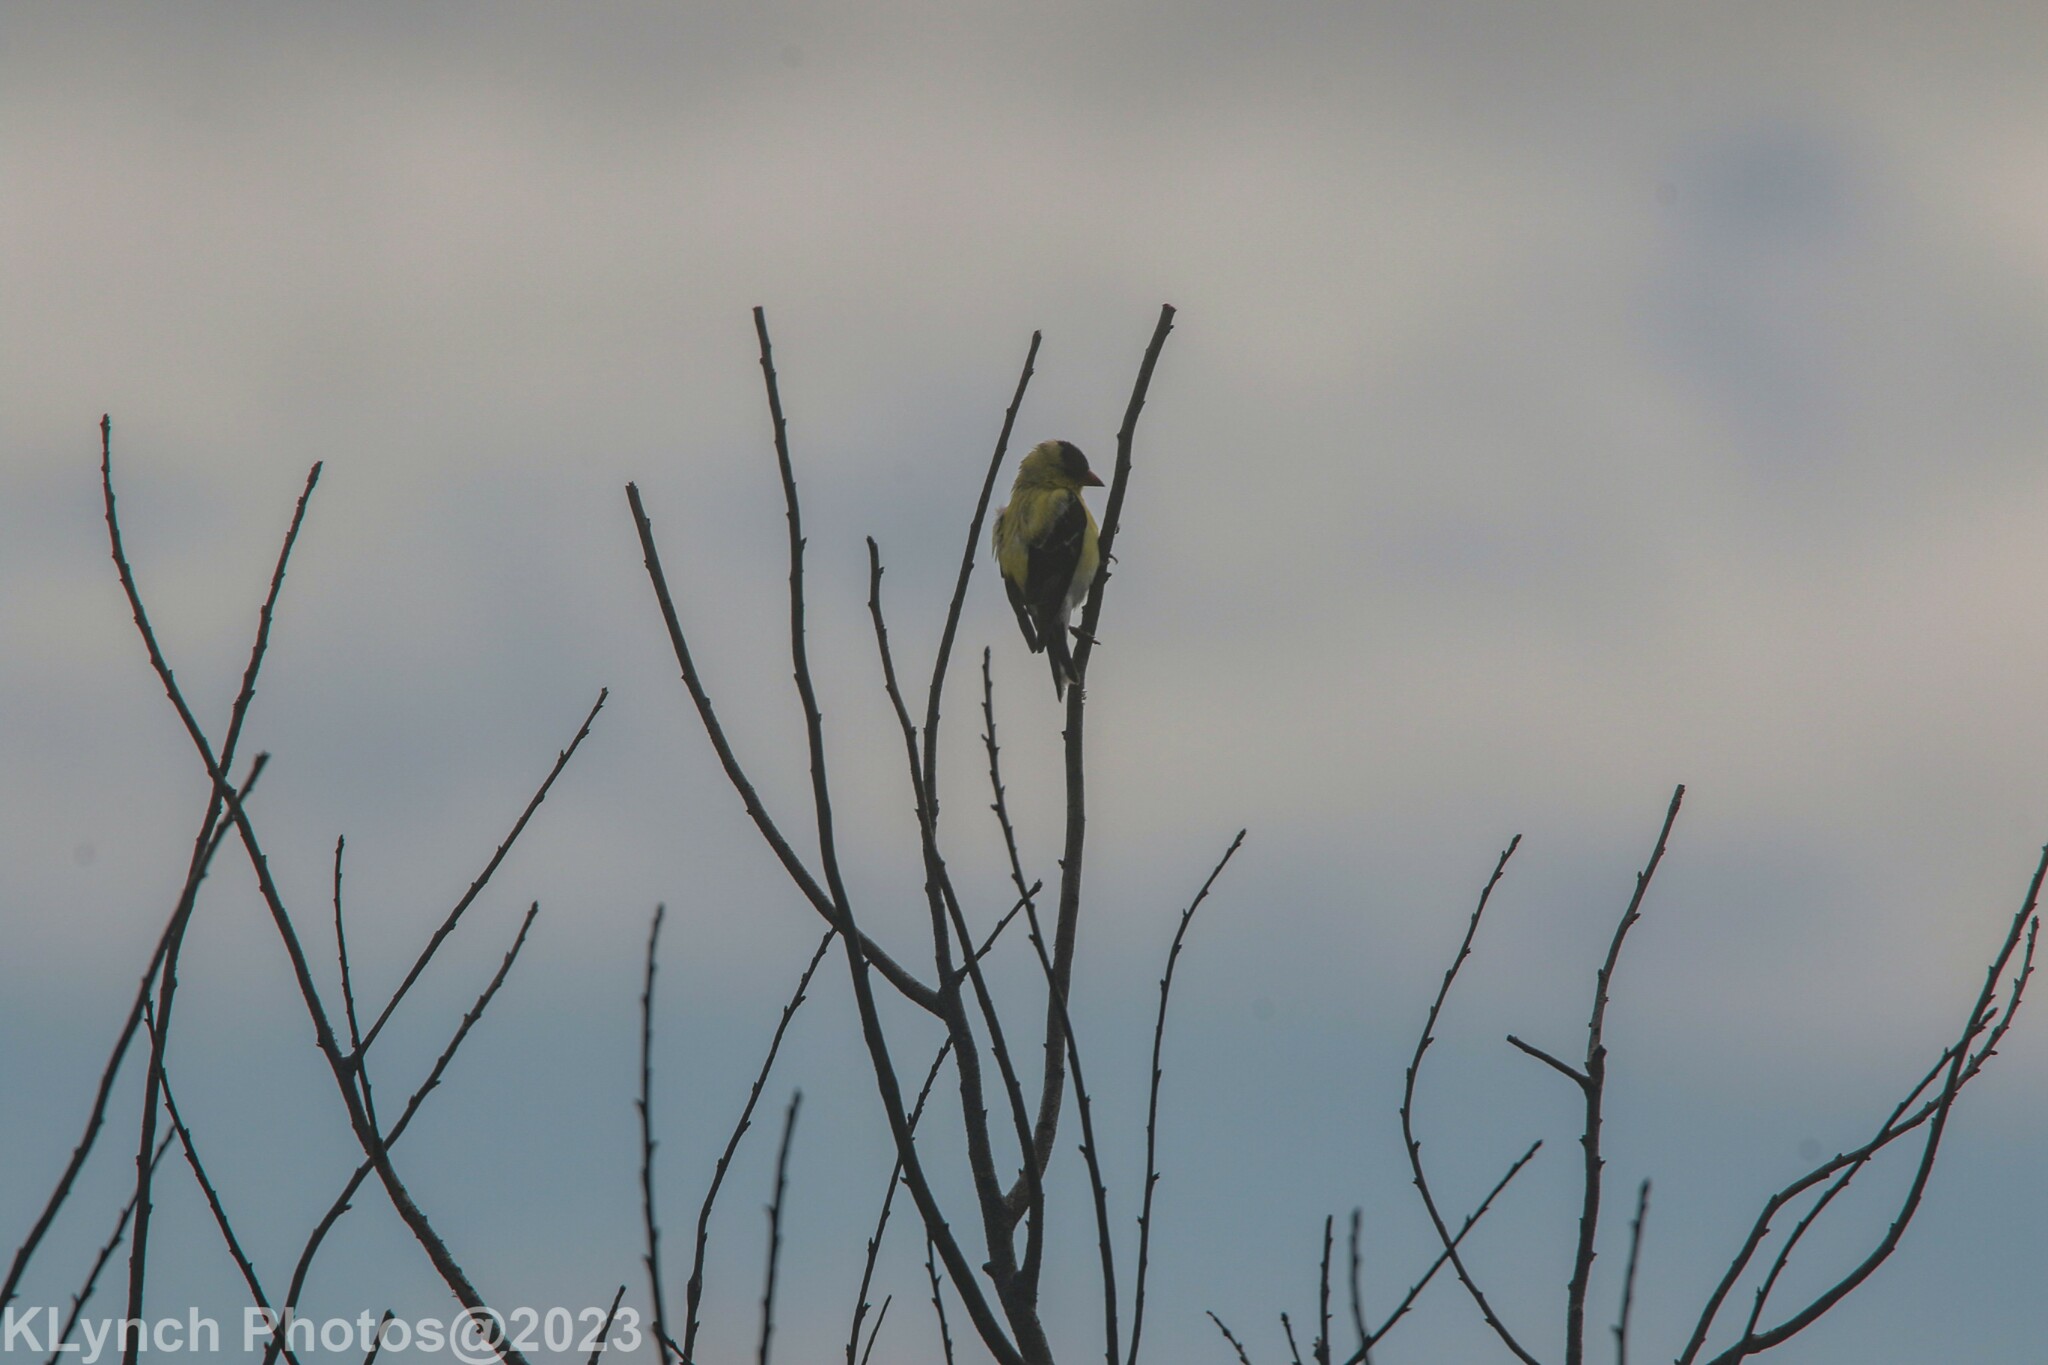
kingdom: Animalia
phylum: Chordata
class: Aves
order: Passeriformes
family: Fringillidae
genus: Spinus
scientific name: Spinus tristis
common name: American goldfinch
